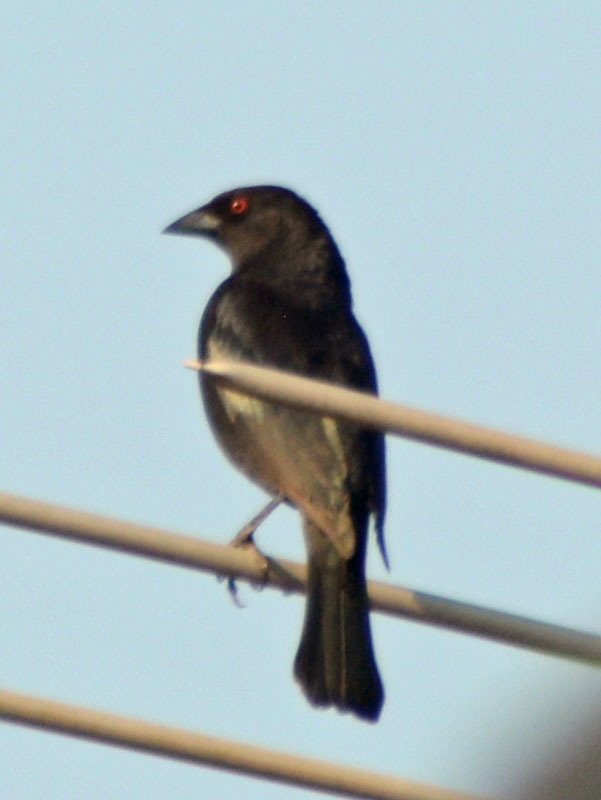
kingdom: Animalia
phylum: Chordata
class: Aves
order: Passeriformes
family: Icteridae
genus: Molothrus
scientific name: Molothrus aeneus
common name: Bronzed cowbird
